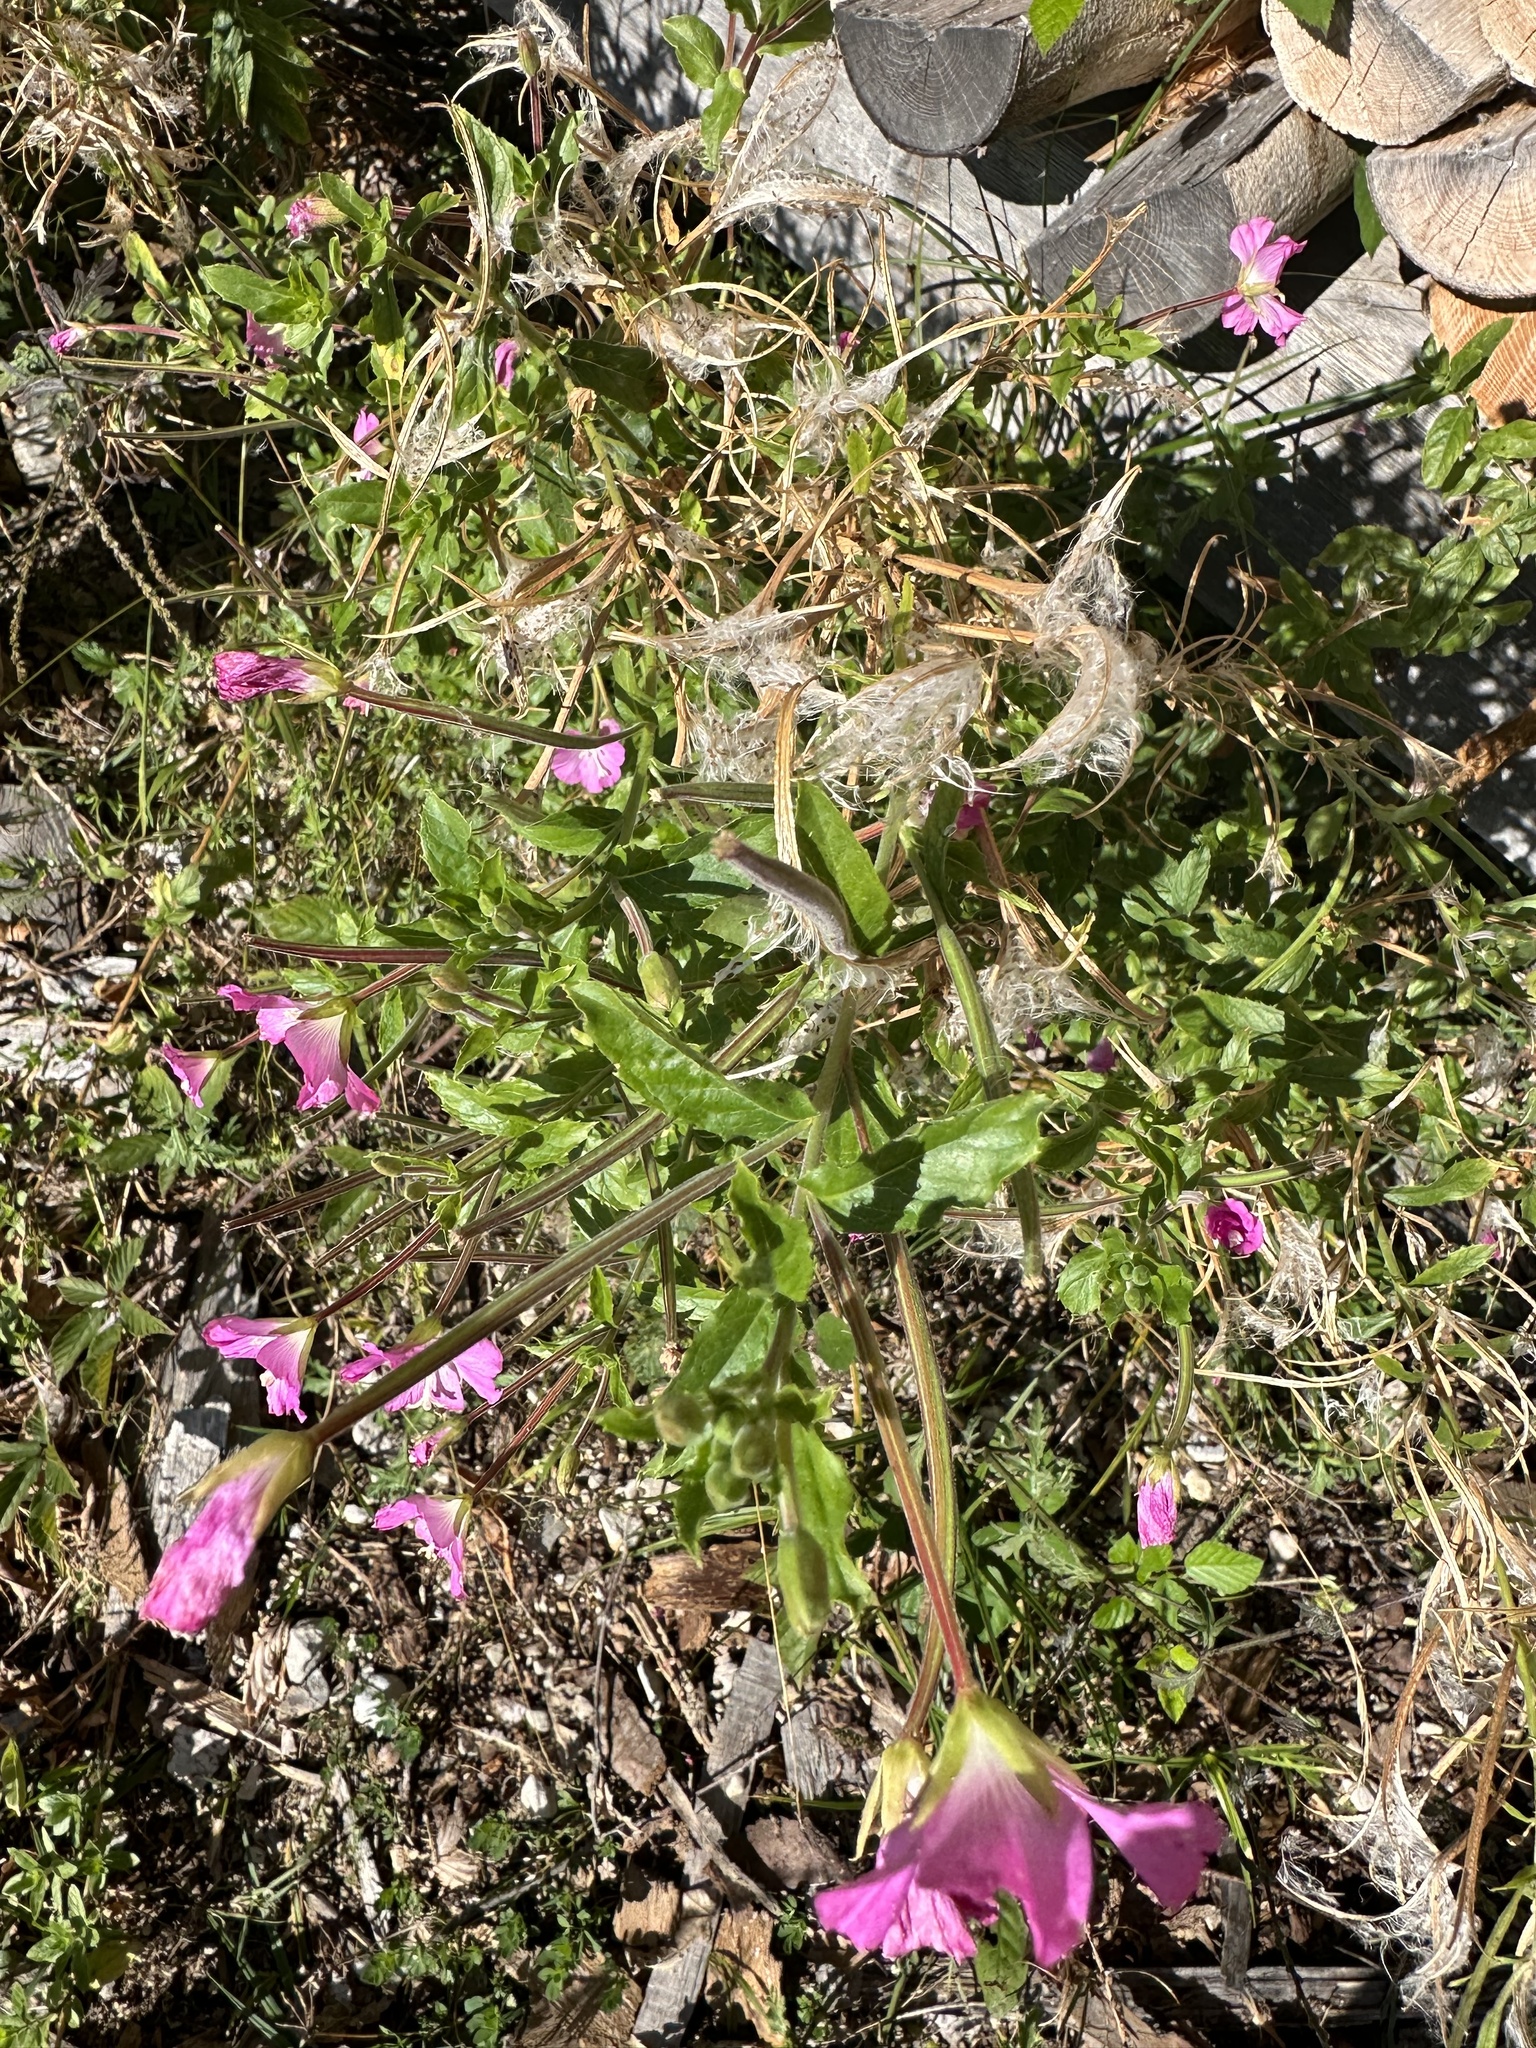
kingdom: Plantae
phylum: Tracheophyta
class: Magnoliopsida
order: Myrtales
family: Onagraceae
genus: Epilobium
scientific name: Epilobium hirsutum
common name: Great willowherb
